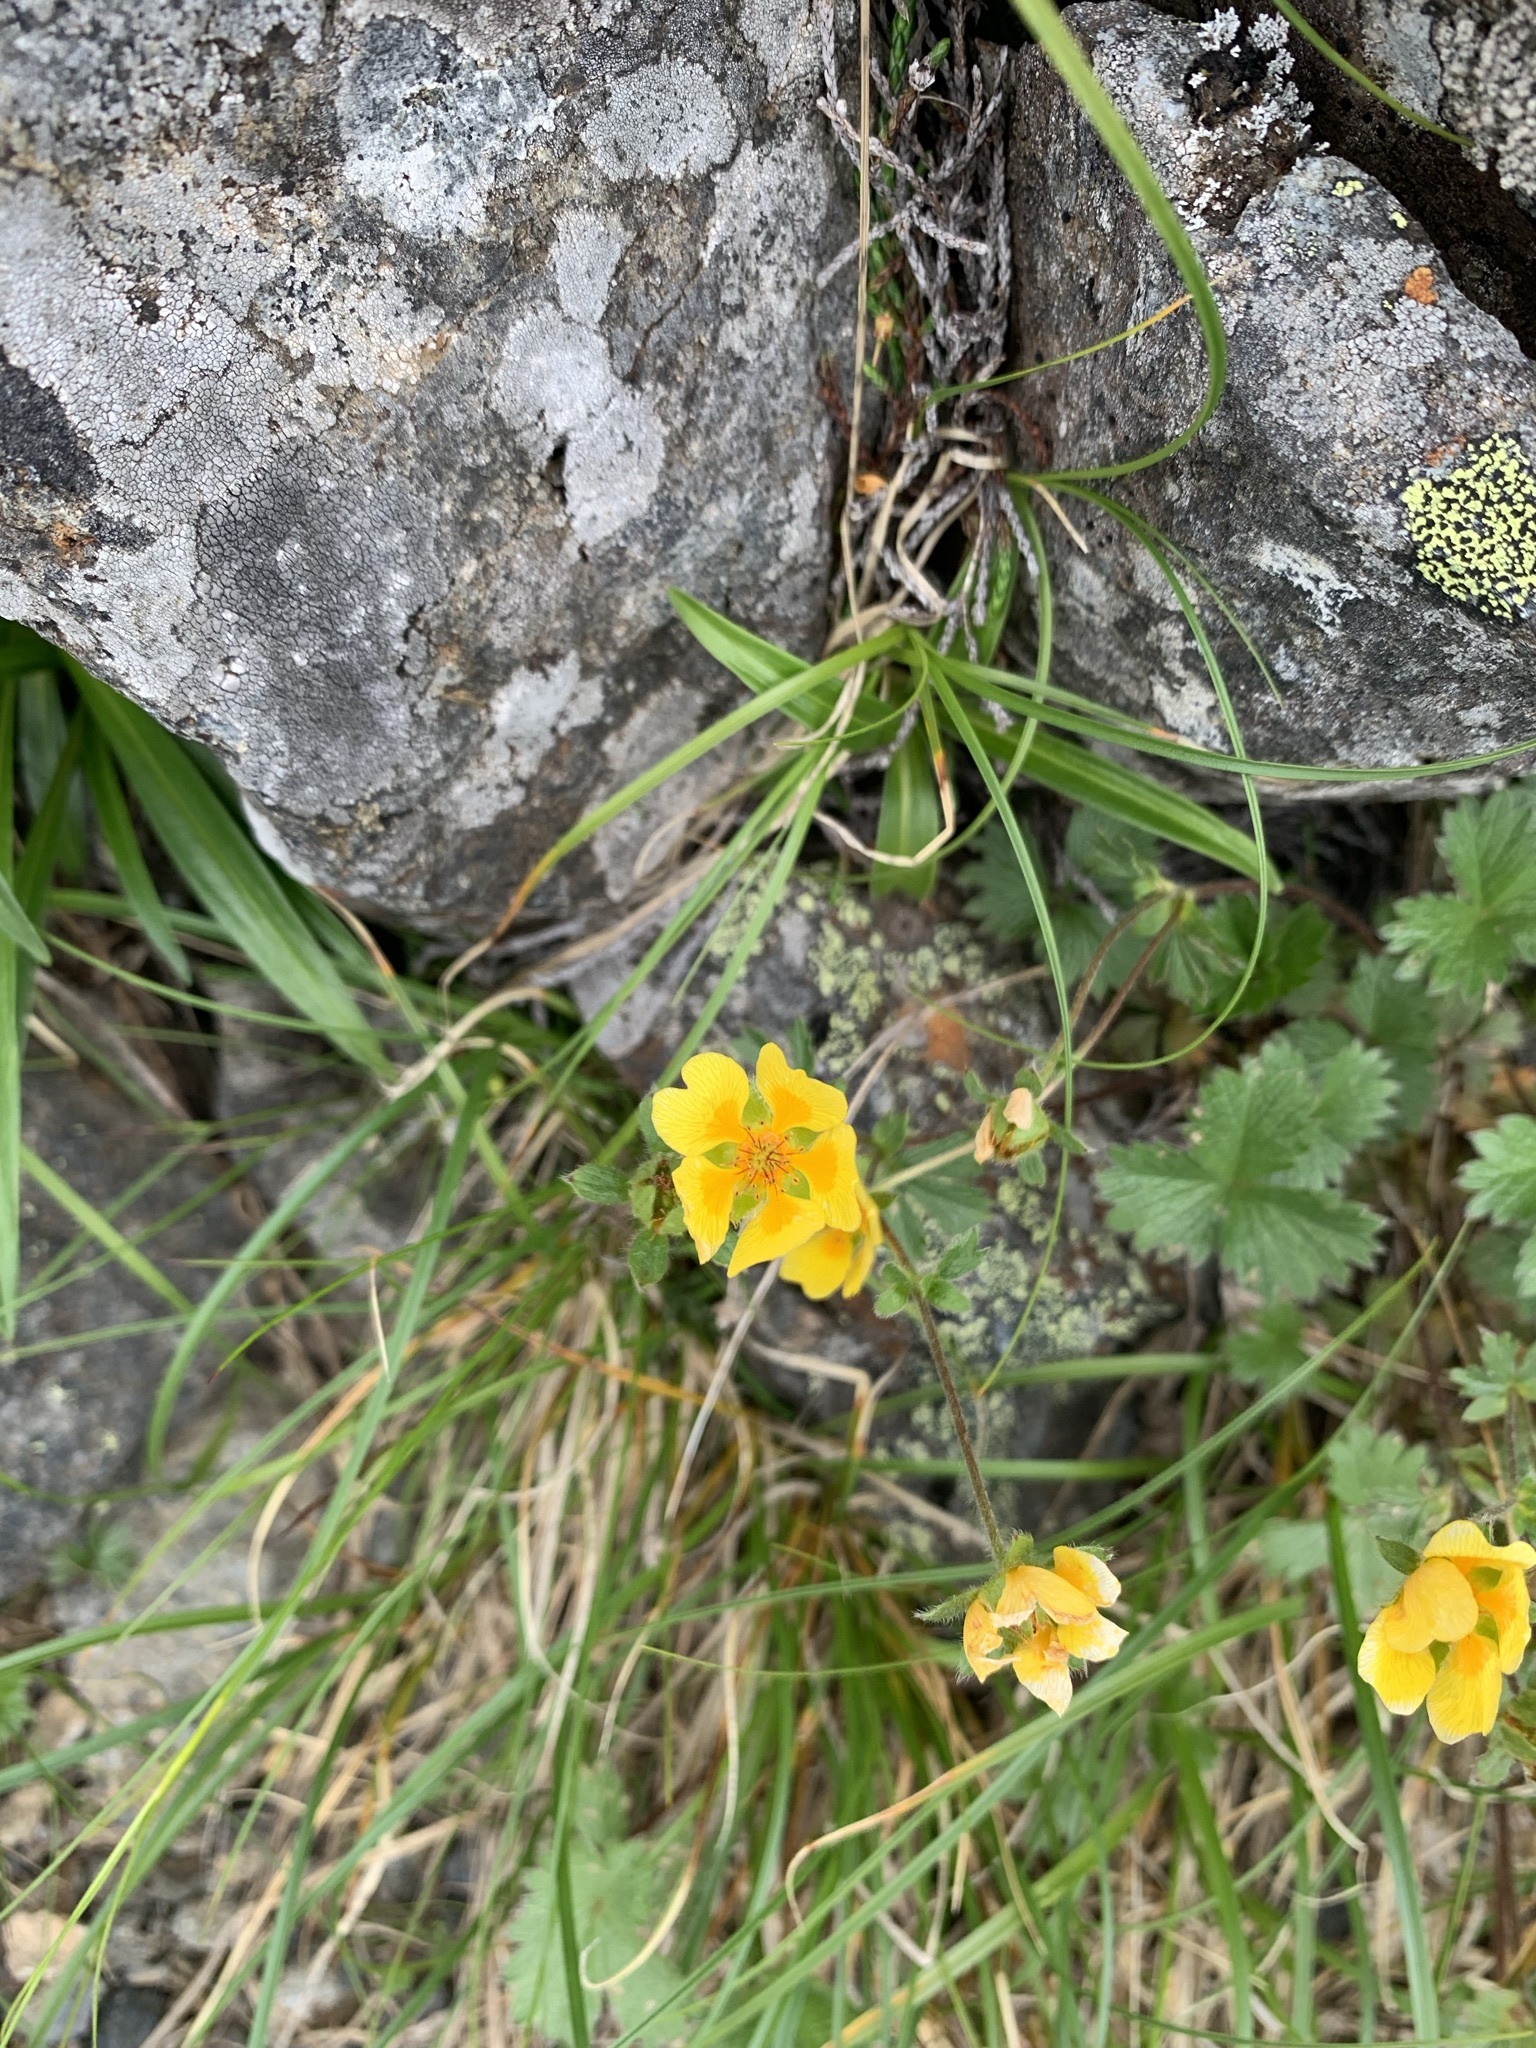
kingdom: Plantae
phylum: Tracheophyta
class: Magnoliopsida
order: Rosales
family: Rosaceae
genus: Potentilla
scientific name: Potentilla matsumurae
